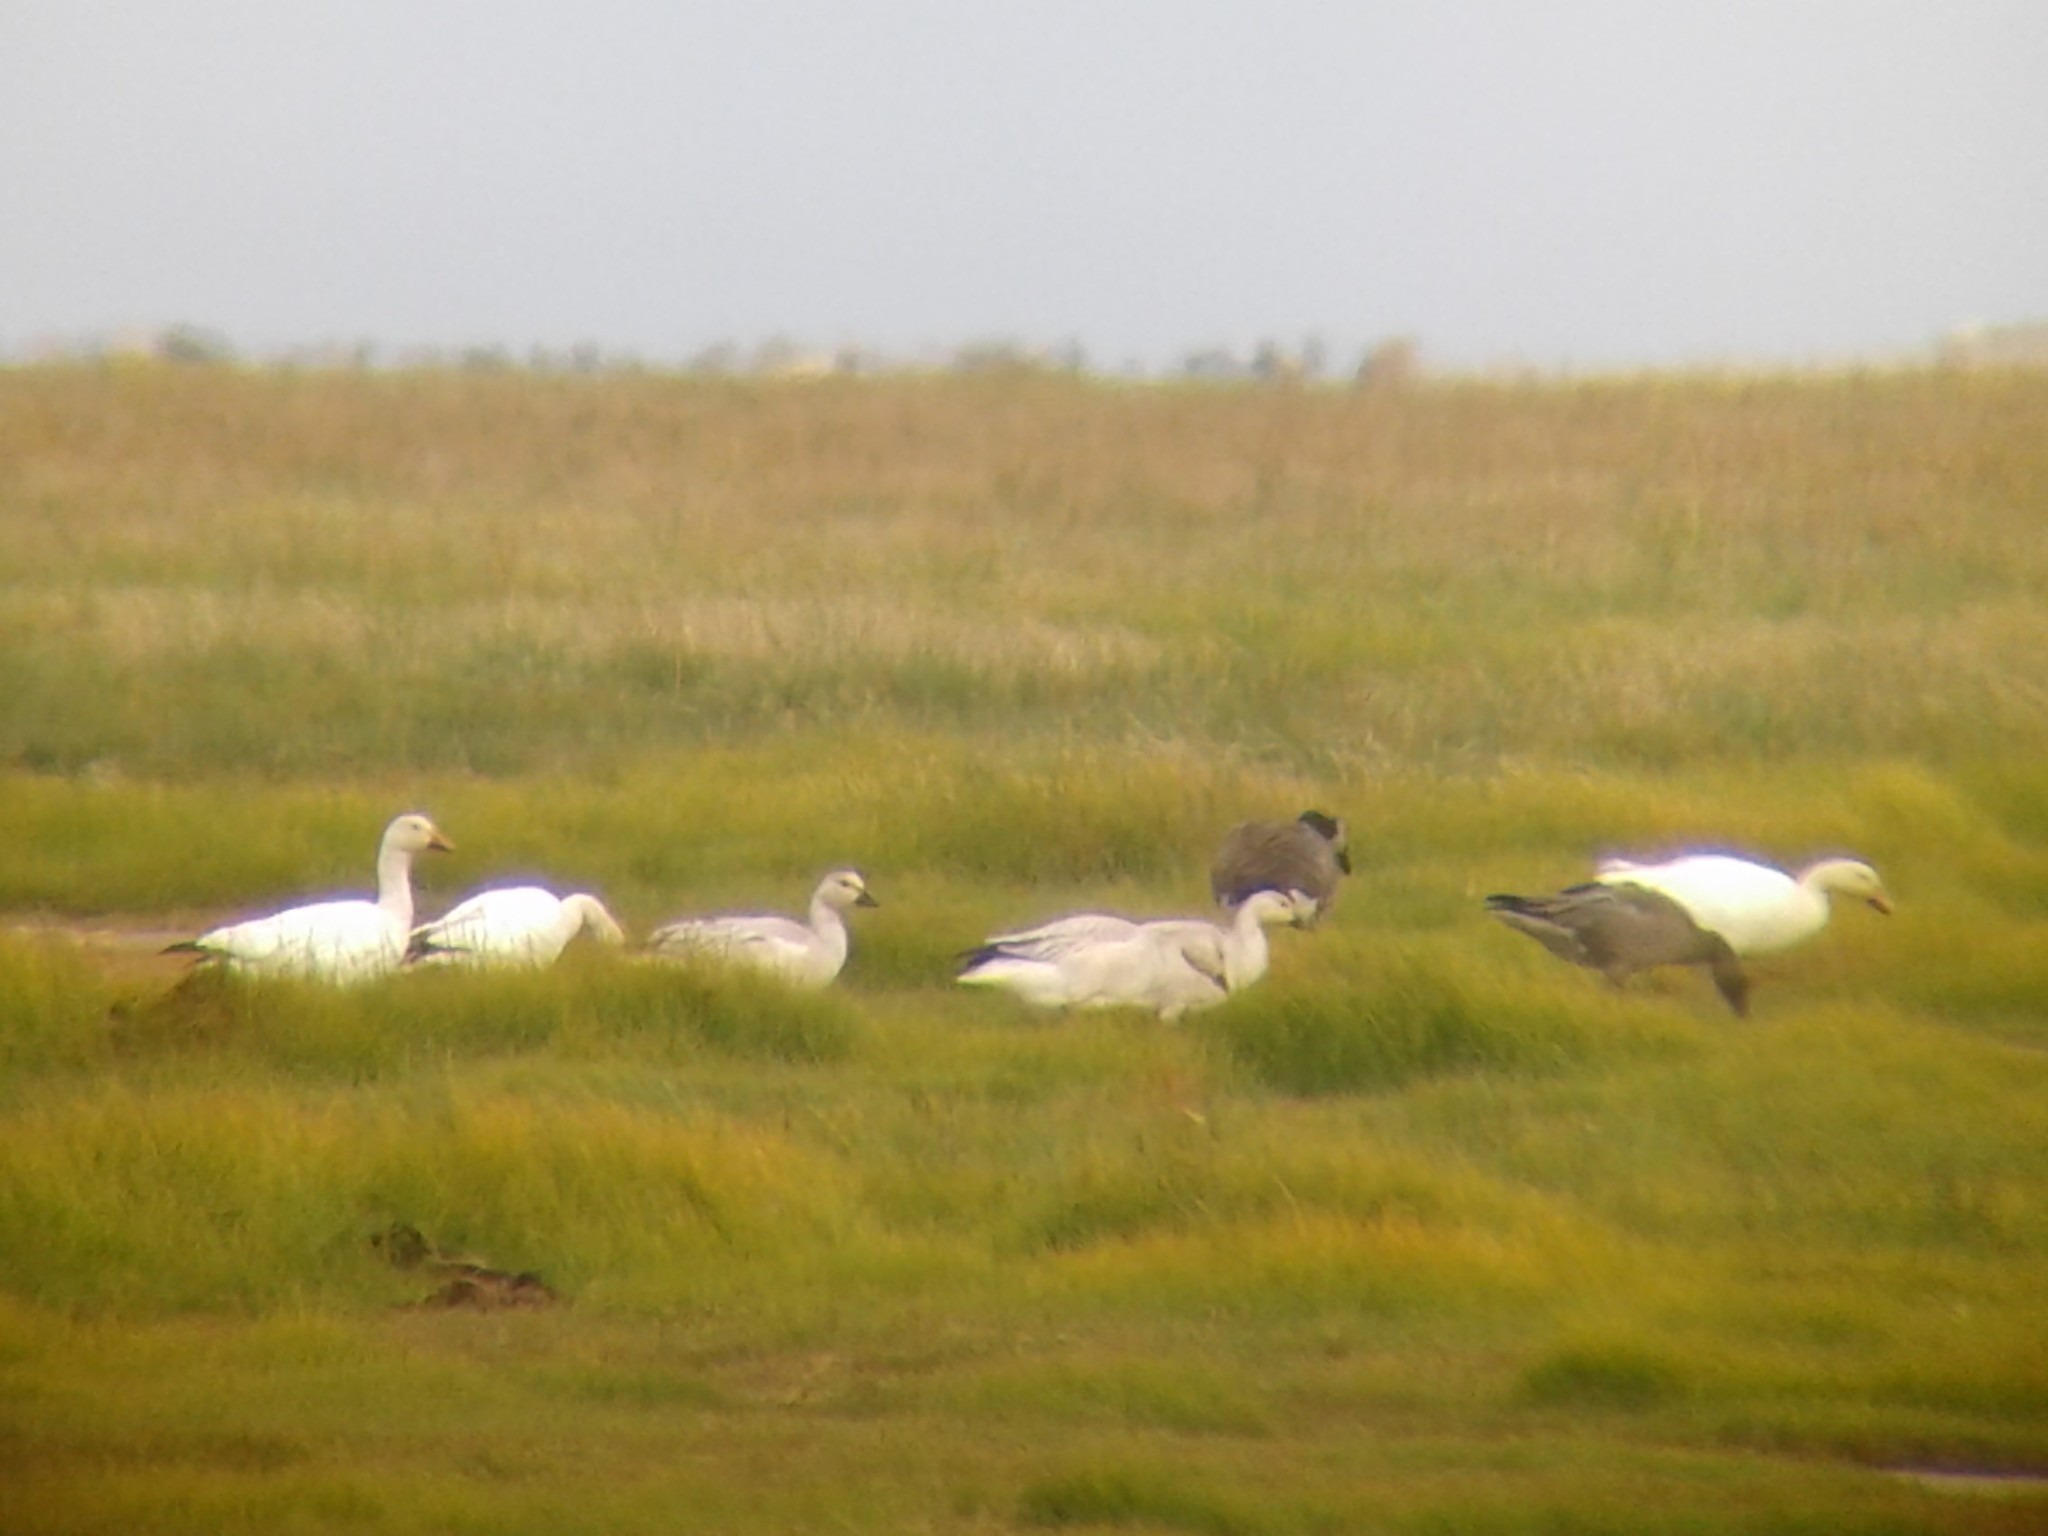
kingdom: Animalia
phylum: Chordata
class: Aves
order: Anseriformes
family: Anatidae
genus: Anser
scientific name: Anser caerulescens
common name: Snow goose
